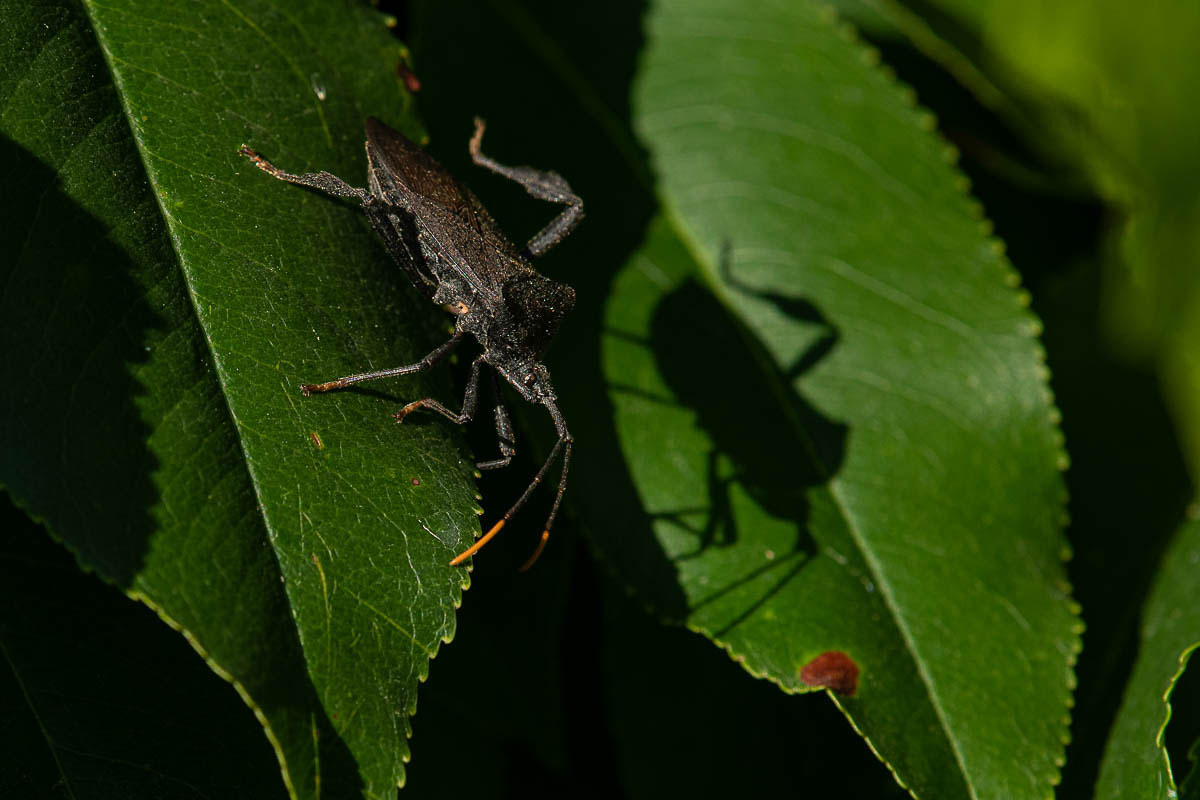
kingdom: Animalia
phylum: Arthropoda
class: Insecta
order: Hemiptera
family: Coreidae
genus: Acanthocephala
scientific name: Acanthocephala terminalis
